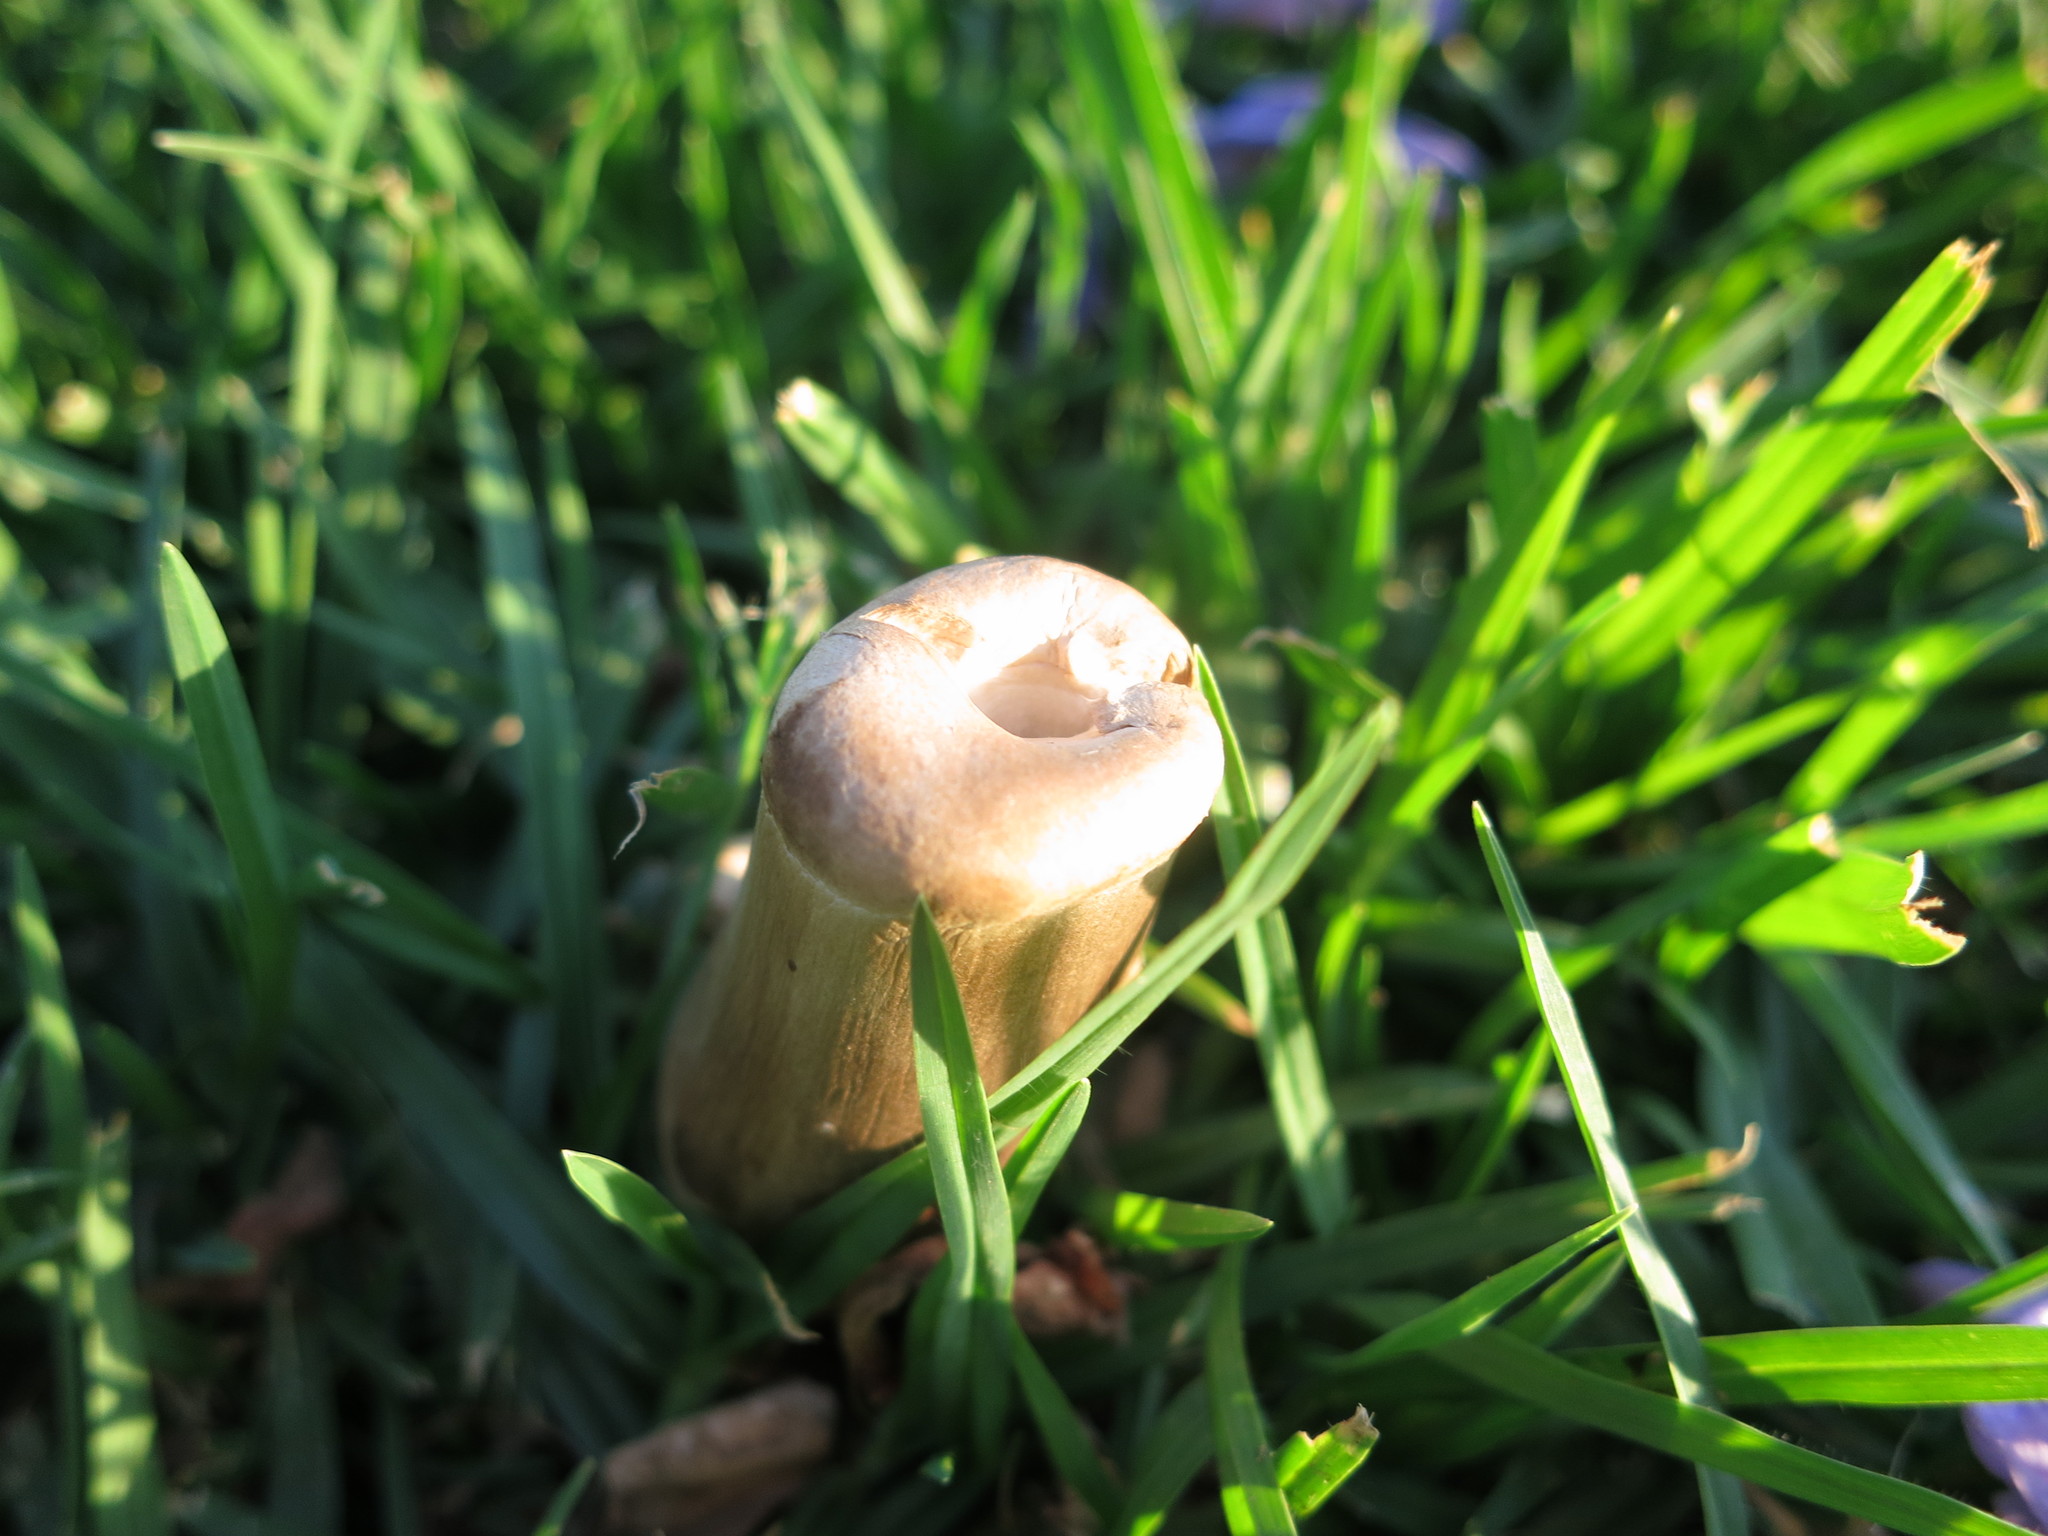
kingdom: Fungi
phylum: Basidiomycota
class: Agaricomycetes
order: Agaricales
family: Agaricaceae
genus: Chlorophyllum
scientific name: Chlorophyllum molybdites
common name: False parasol
